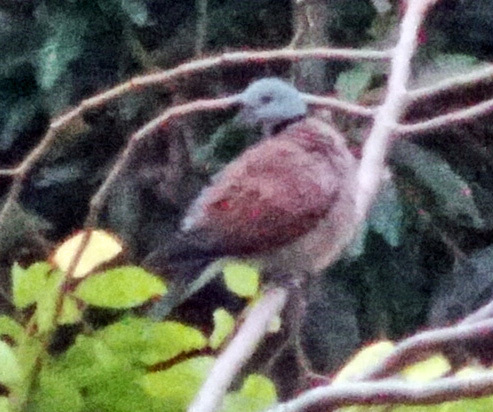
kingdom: Animalia
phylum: Chordata
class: Aves
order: Columbiformes
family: Columbidae
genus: Streptopelia
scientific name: Streptopelia tranquebarica
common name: Red turtle dove
